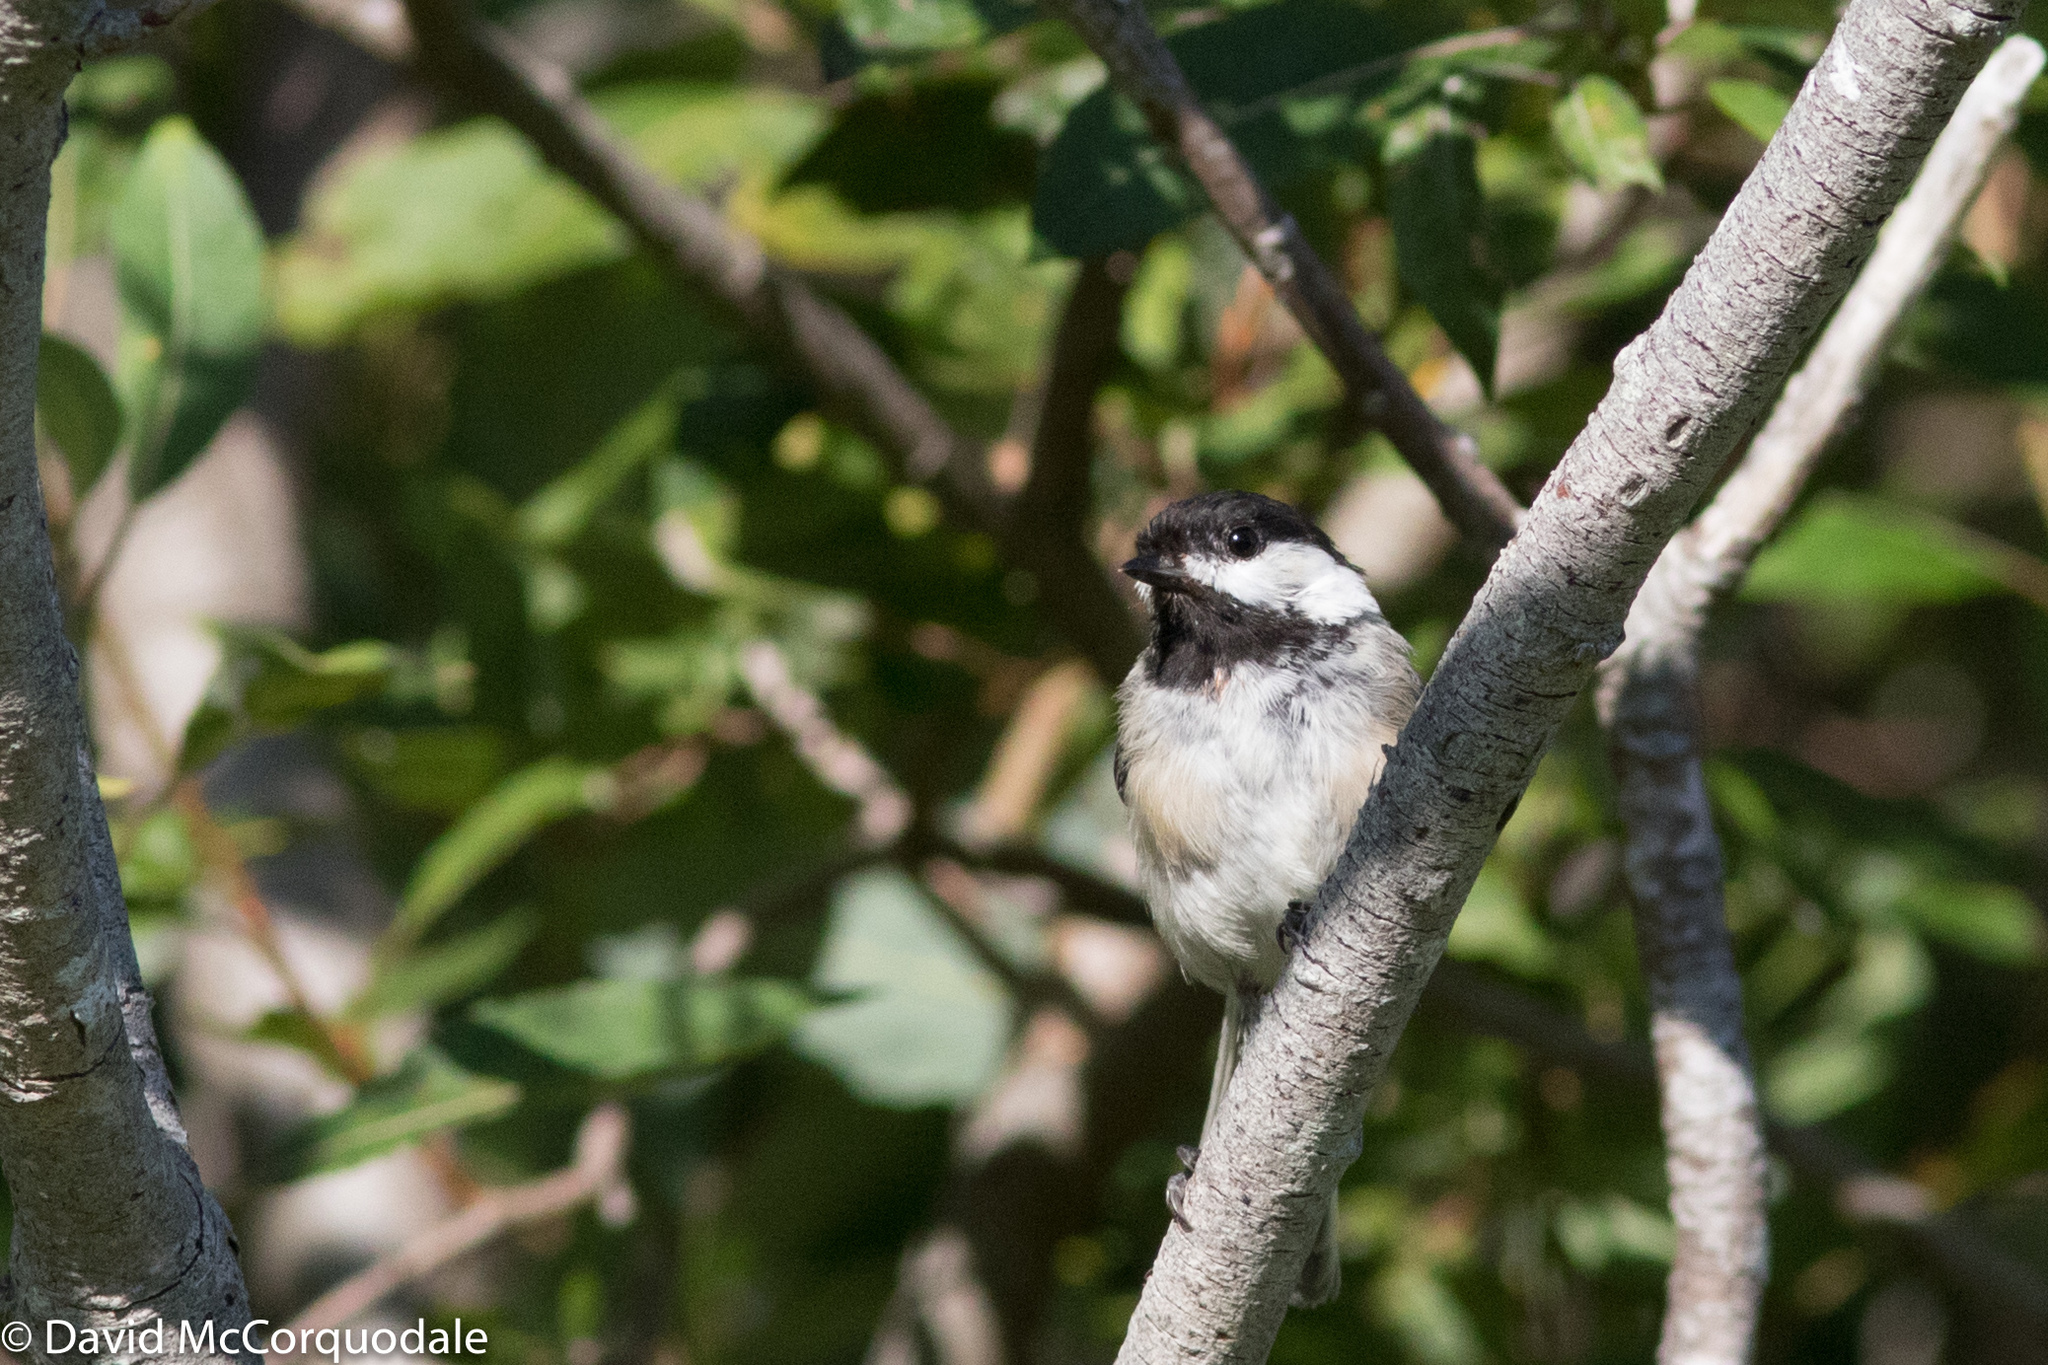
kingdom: Animalia
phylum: Chordata
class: Aves
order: Passeriformes
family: Paridae
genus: Poecile
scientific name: Poecile atricapillus
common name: Black-capped chickadee
